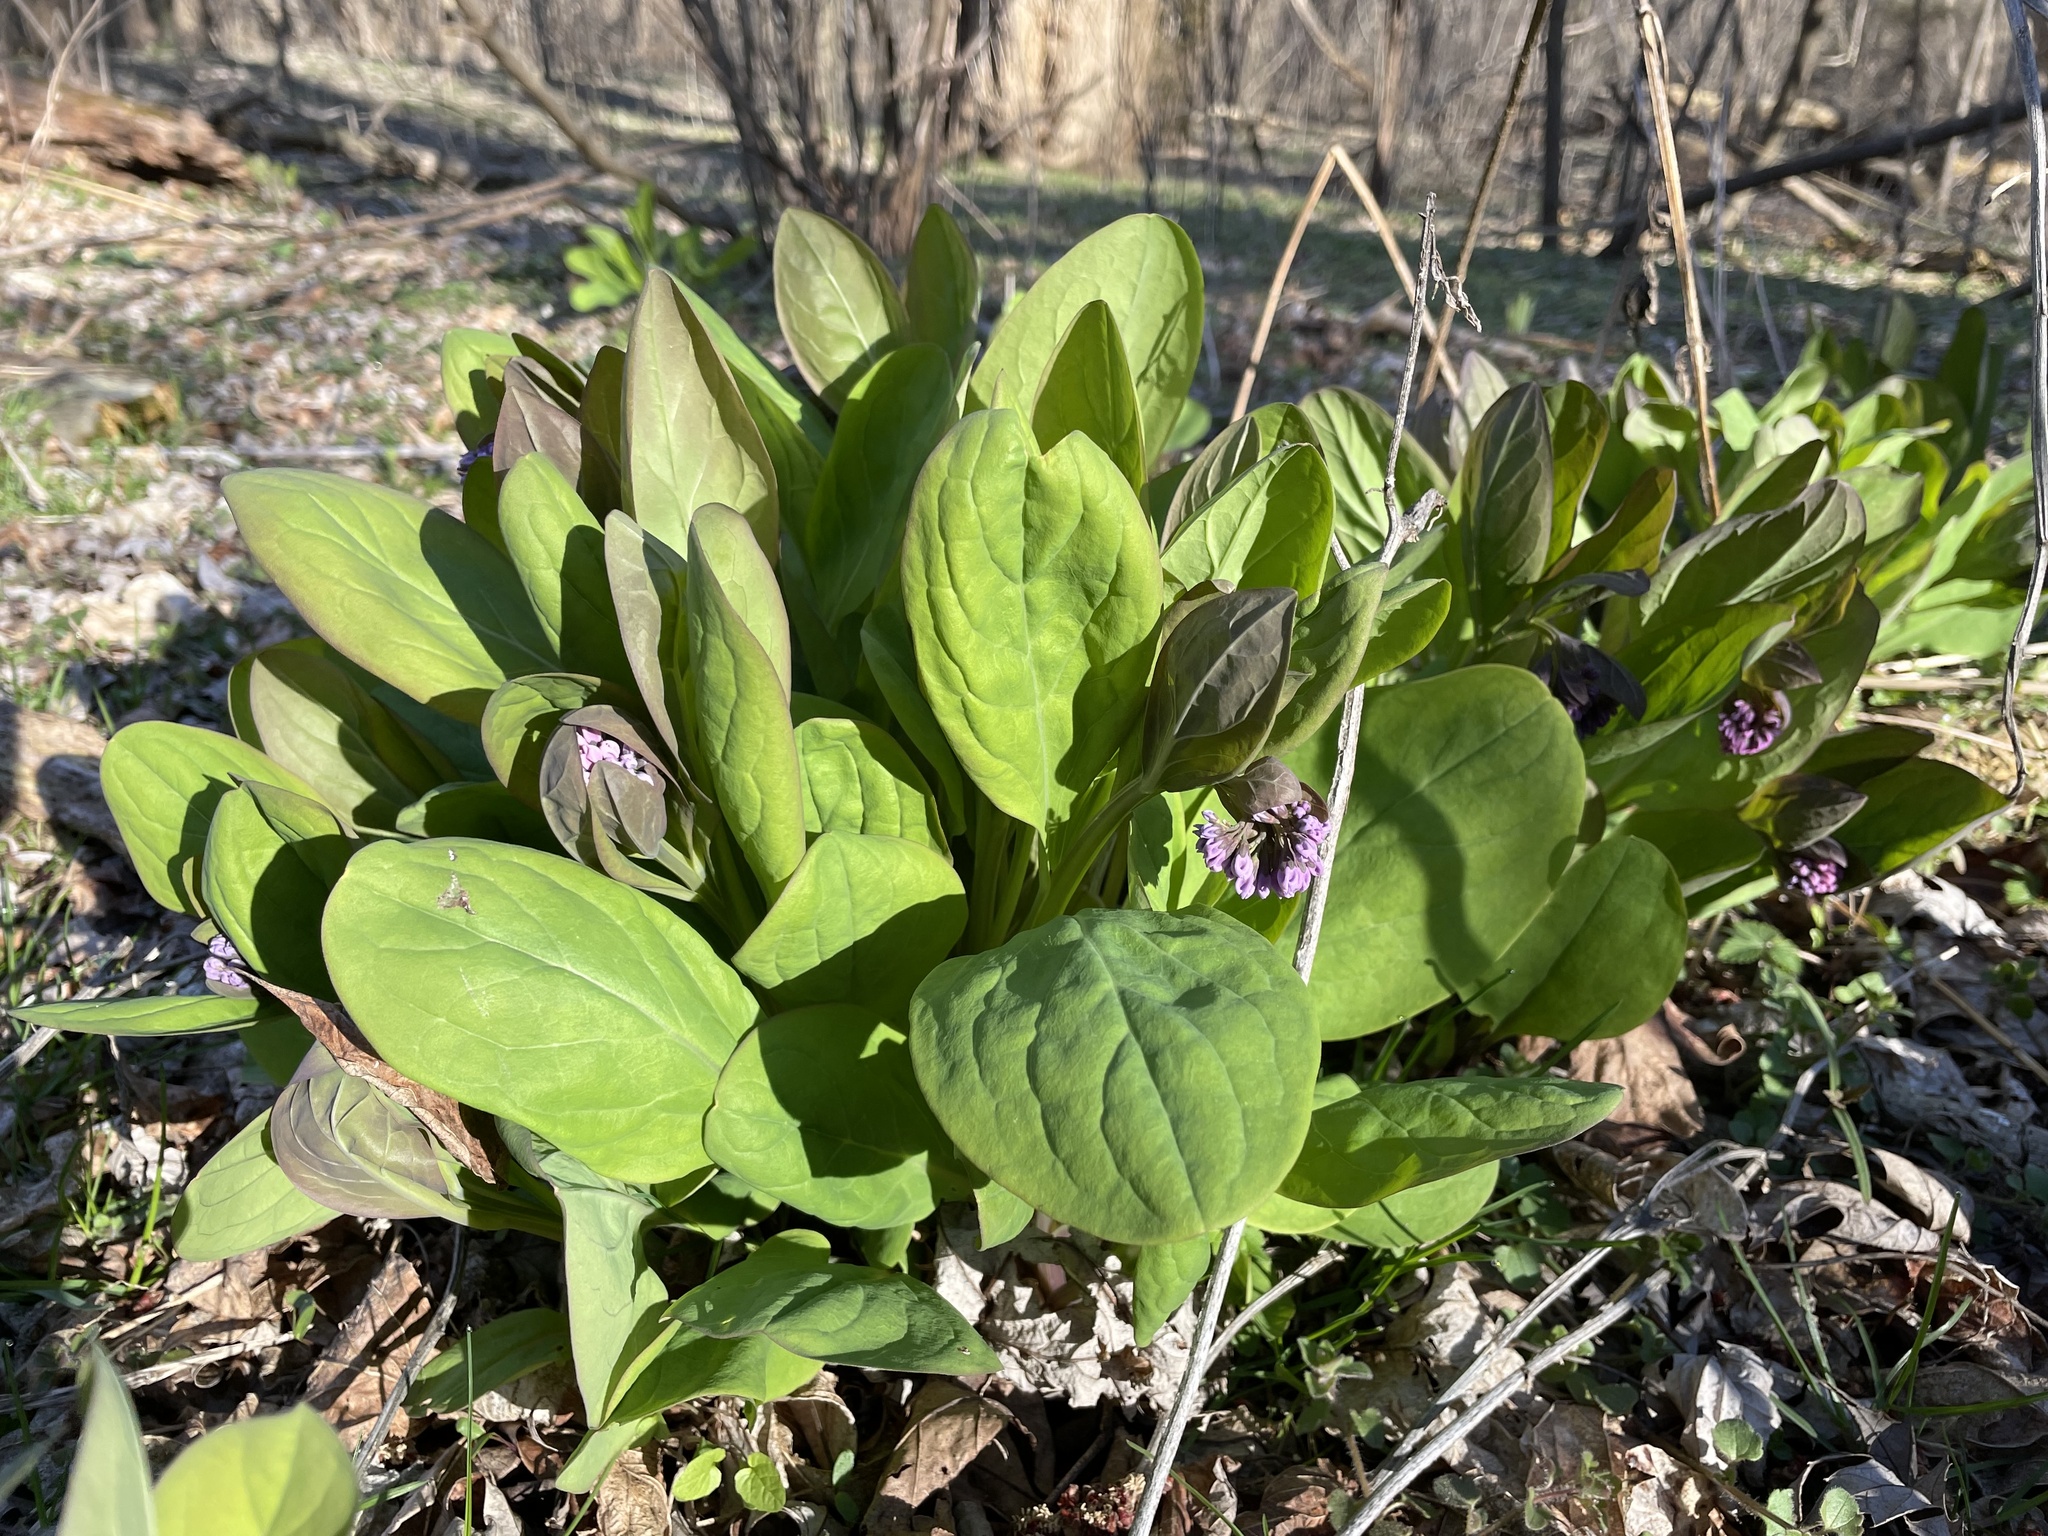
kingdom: Plantae
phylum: Tracheophyta
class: Magnoliopsida
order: Boraginales
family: Boraginaceae
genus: Mertensia
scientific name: Mertensia virginica
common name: Virginia bluebells
